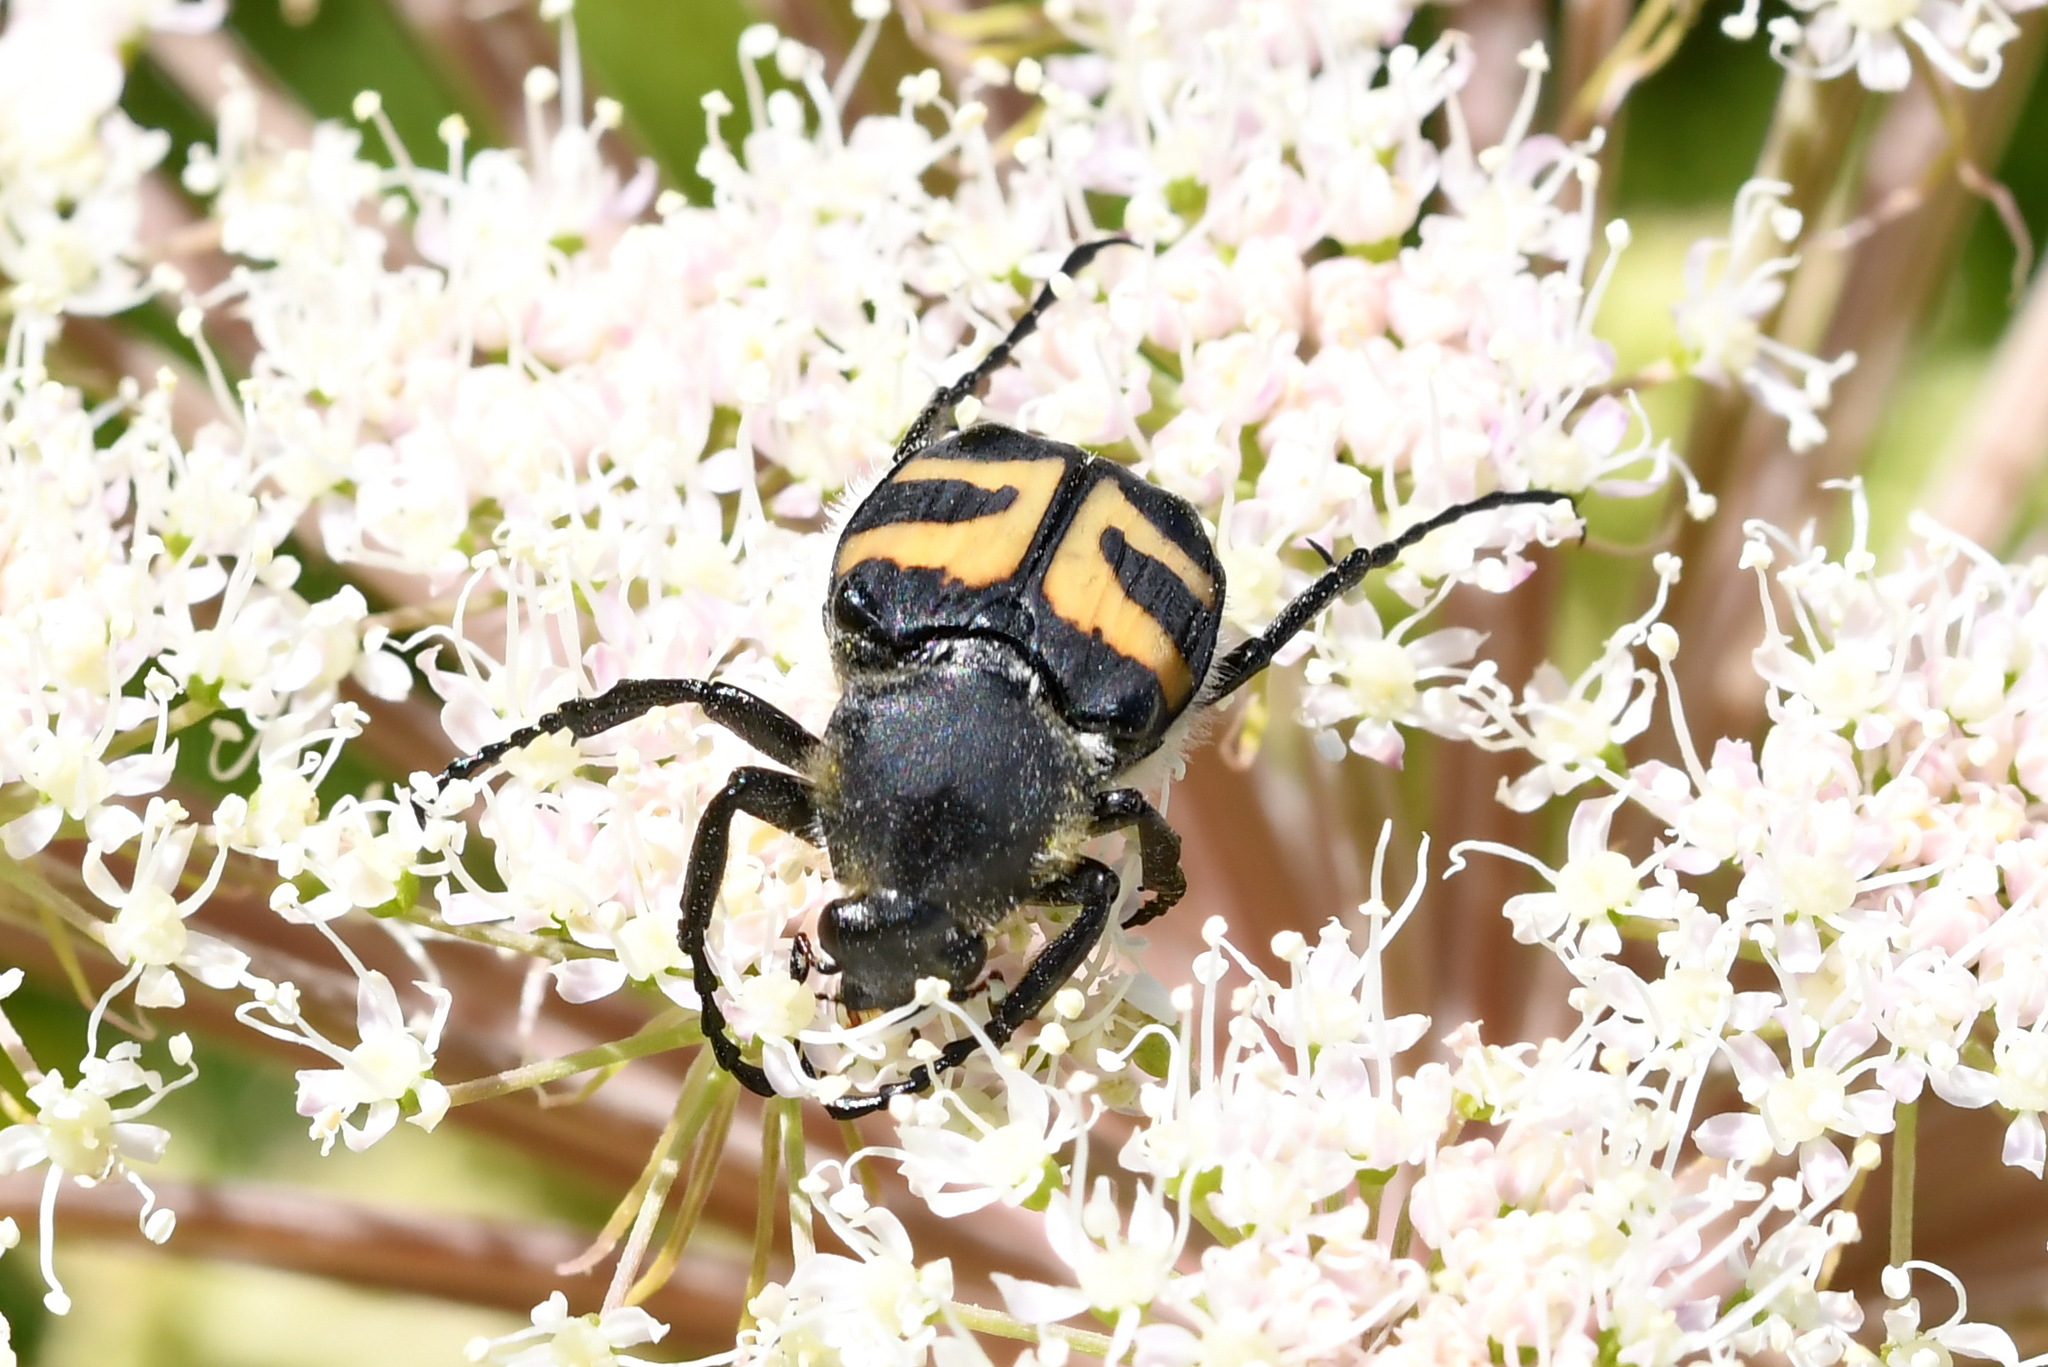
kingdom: Animalia
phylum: Arthropoda
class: Insecta
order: Coleoptera
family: Scarabaeidae
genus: Trichius
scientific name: Trichius fasciatus
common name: Bee beetle
